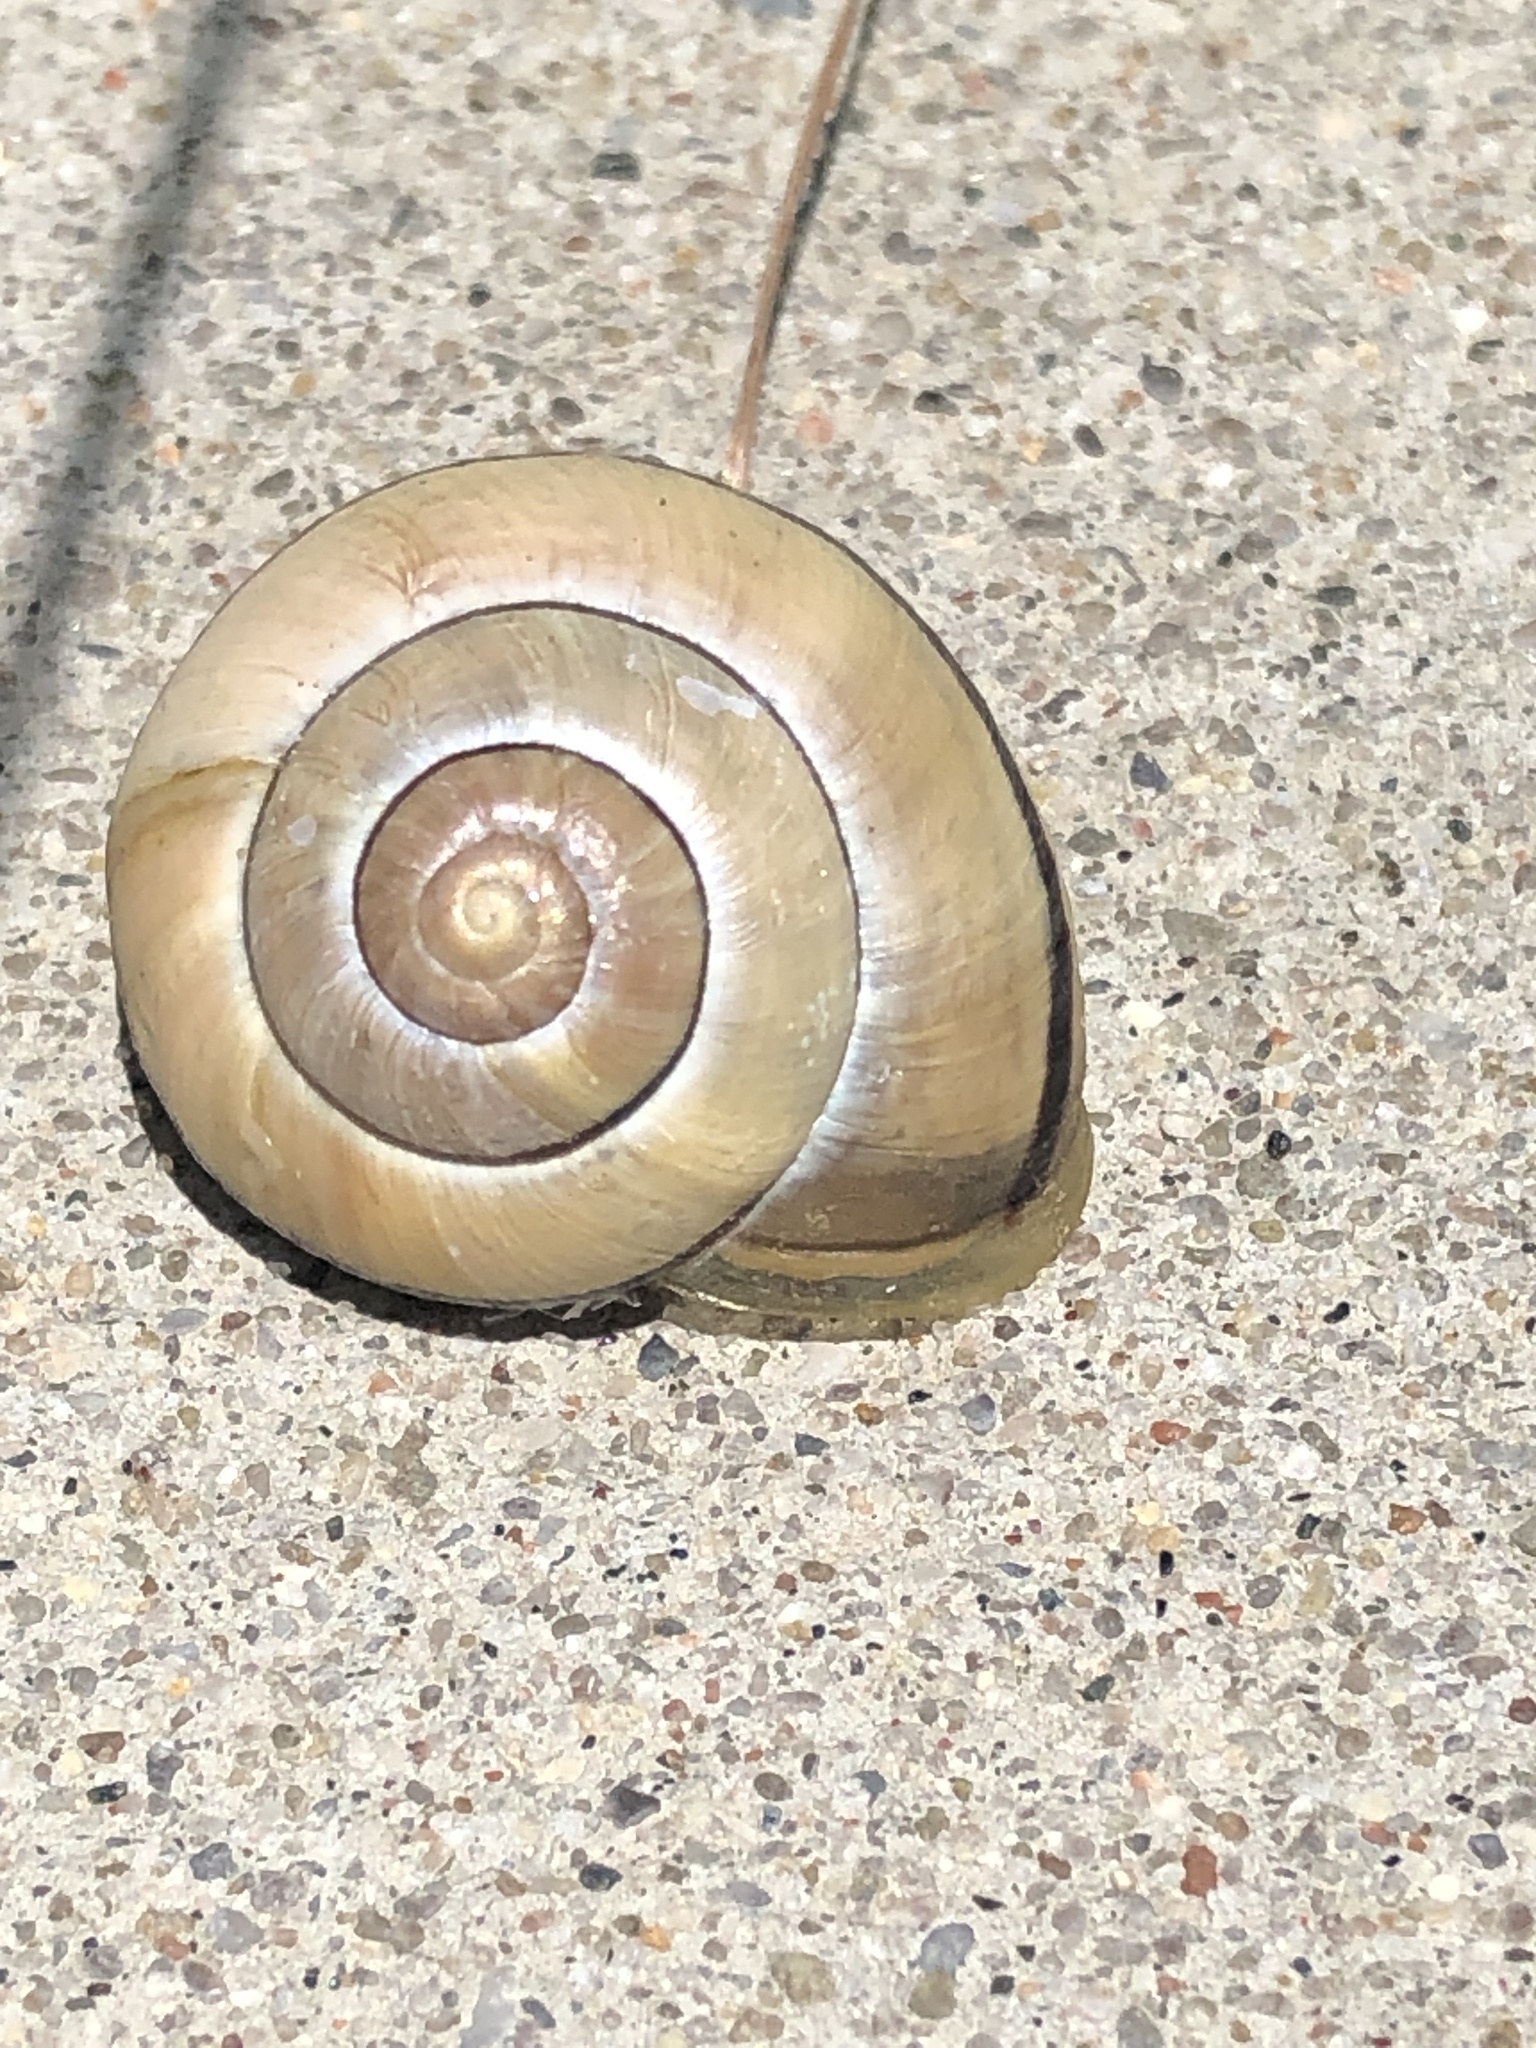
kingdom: Animalia
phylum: Mollusca
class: Gastropoda
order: Stylommatophora
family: Helicidae
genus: Cepaea
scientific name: Cepaea nemoralis
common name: Grovesnail
